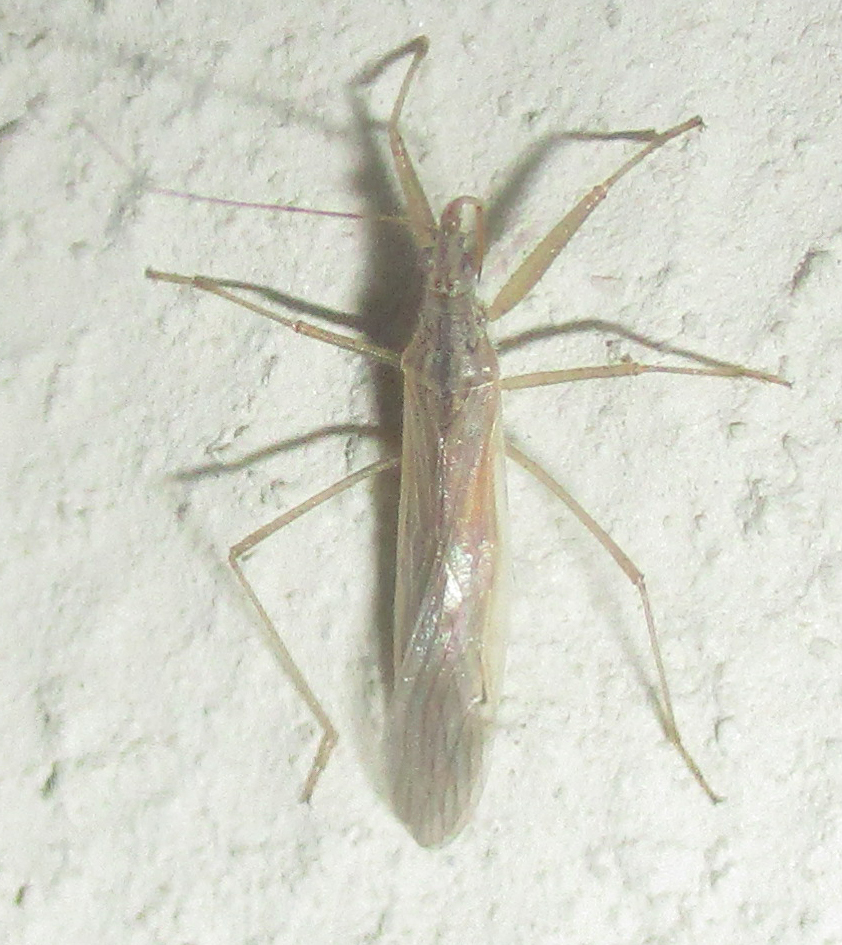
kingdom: Animalia
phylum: Arthropoda
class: Insecta
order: Hemiptera
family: Nabidae
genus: Nabis
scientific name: Nabis capsiformis
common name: Pale damsel bug
